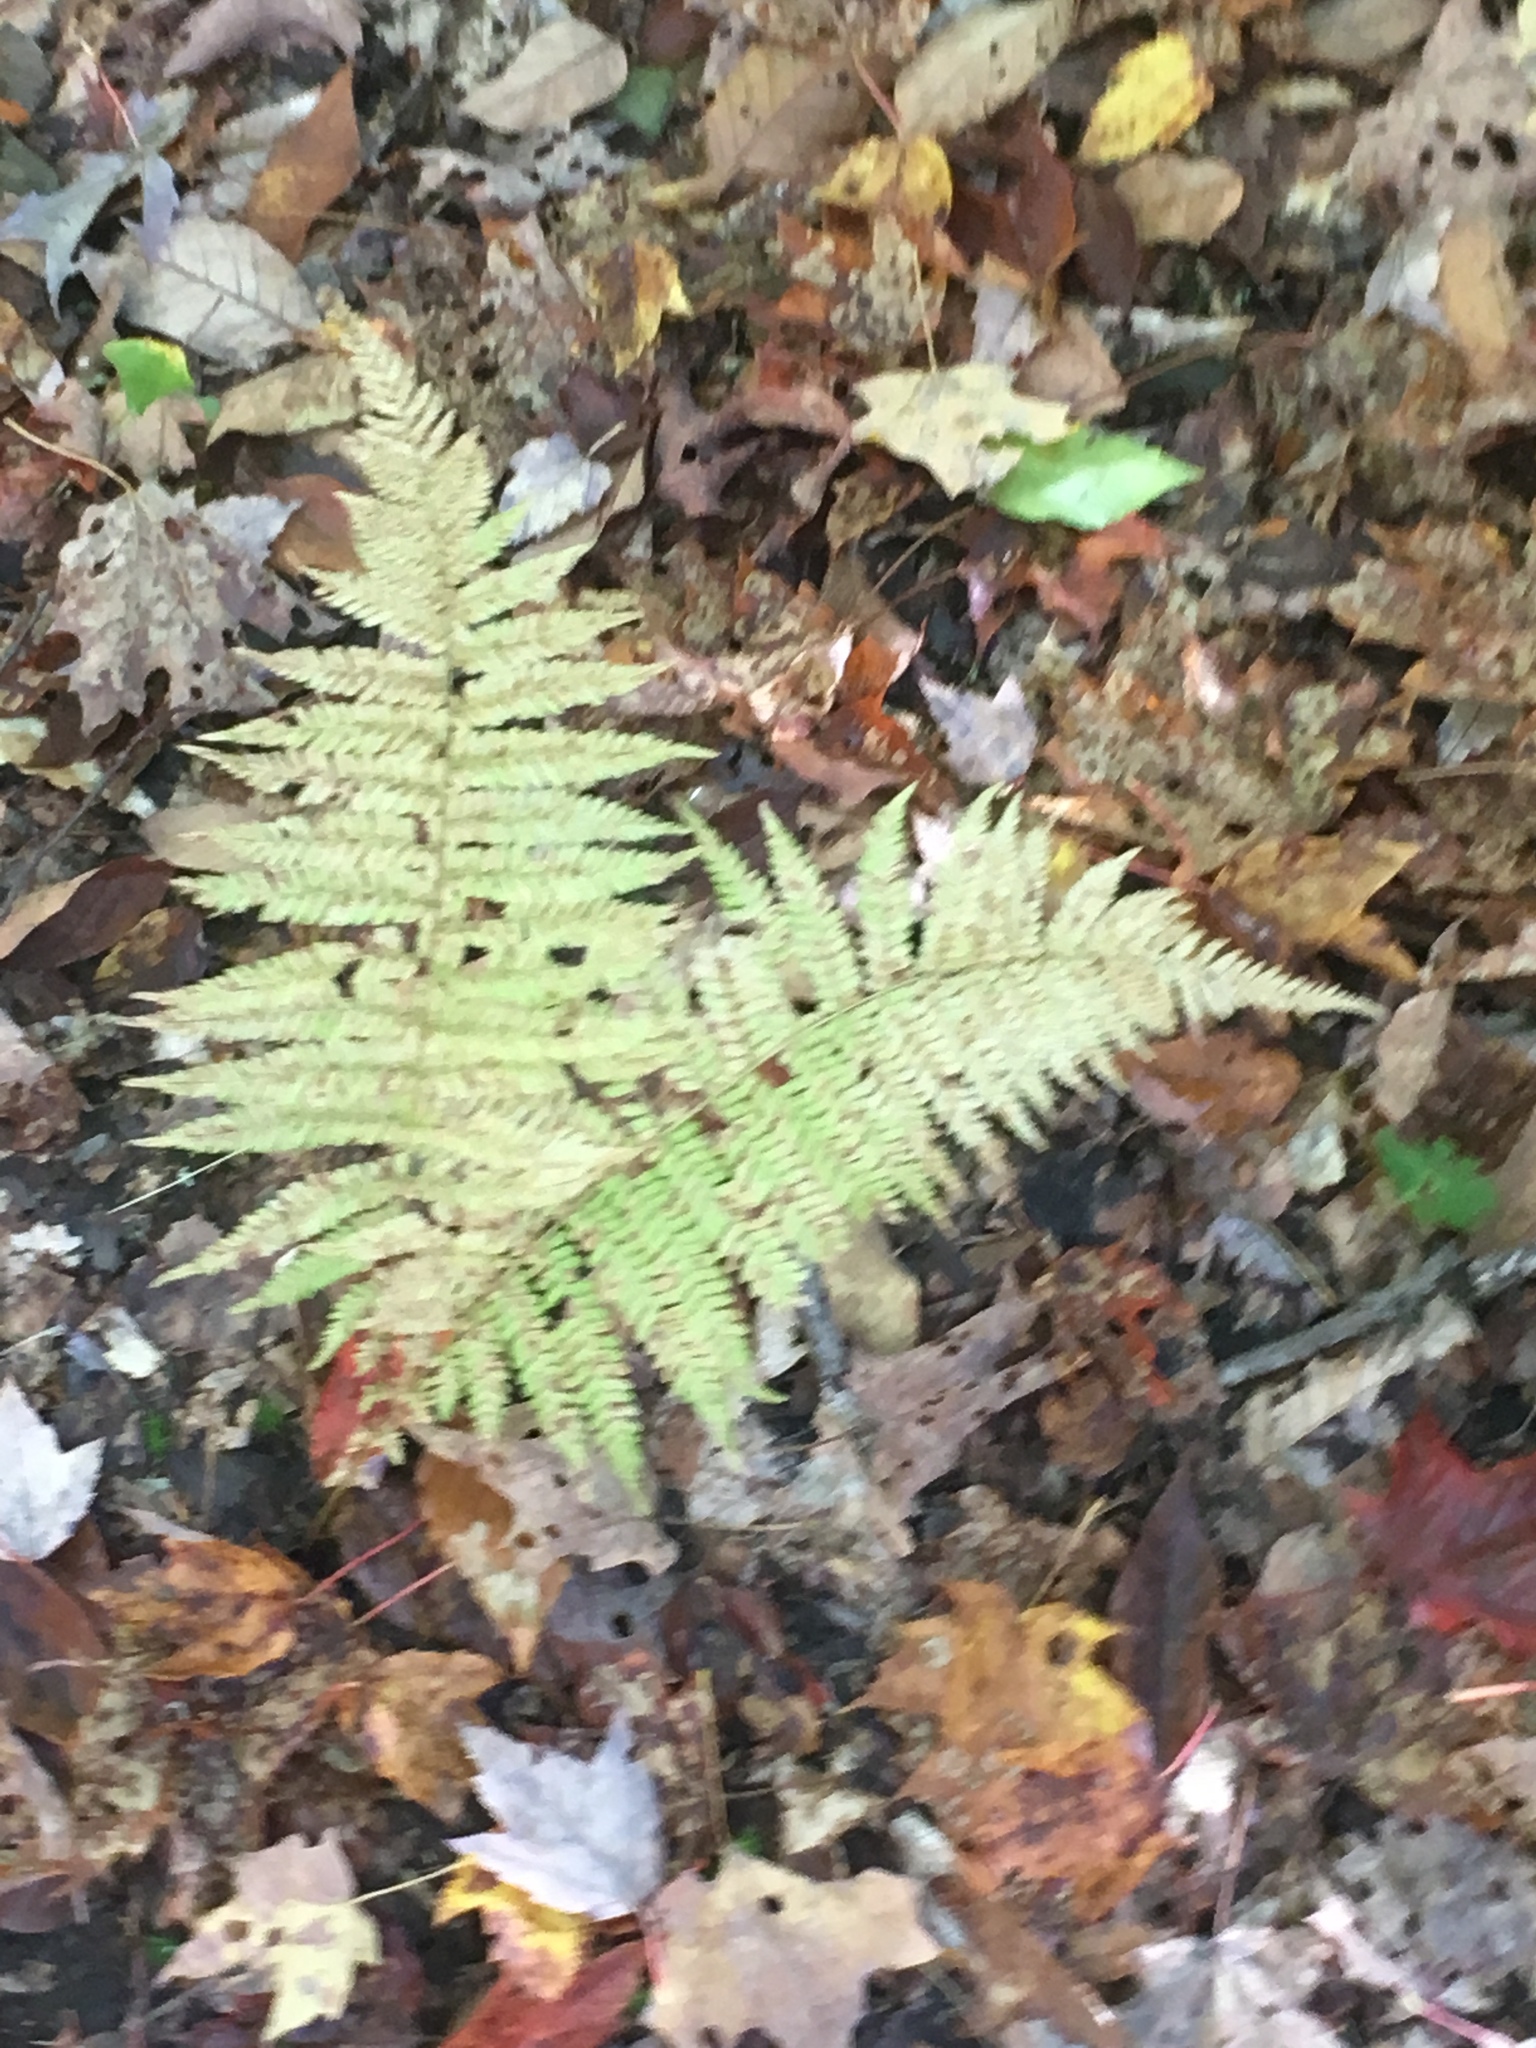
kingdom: Plantae
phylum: Tracheophyta
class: Polypodiopsida
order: Polypodiales
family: Thelypteridaceae
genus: Amauropelta
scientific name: Amauropelta noveboracensis
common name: New york fern
